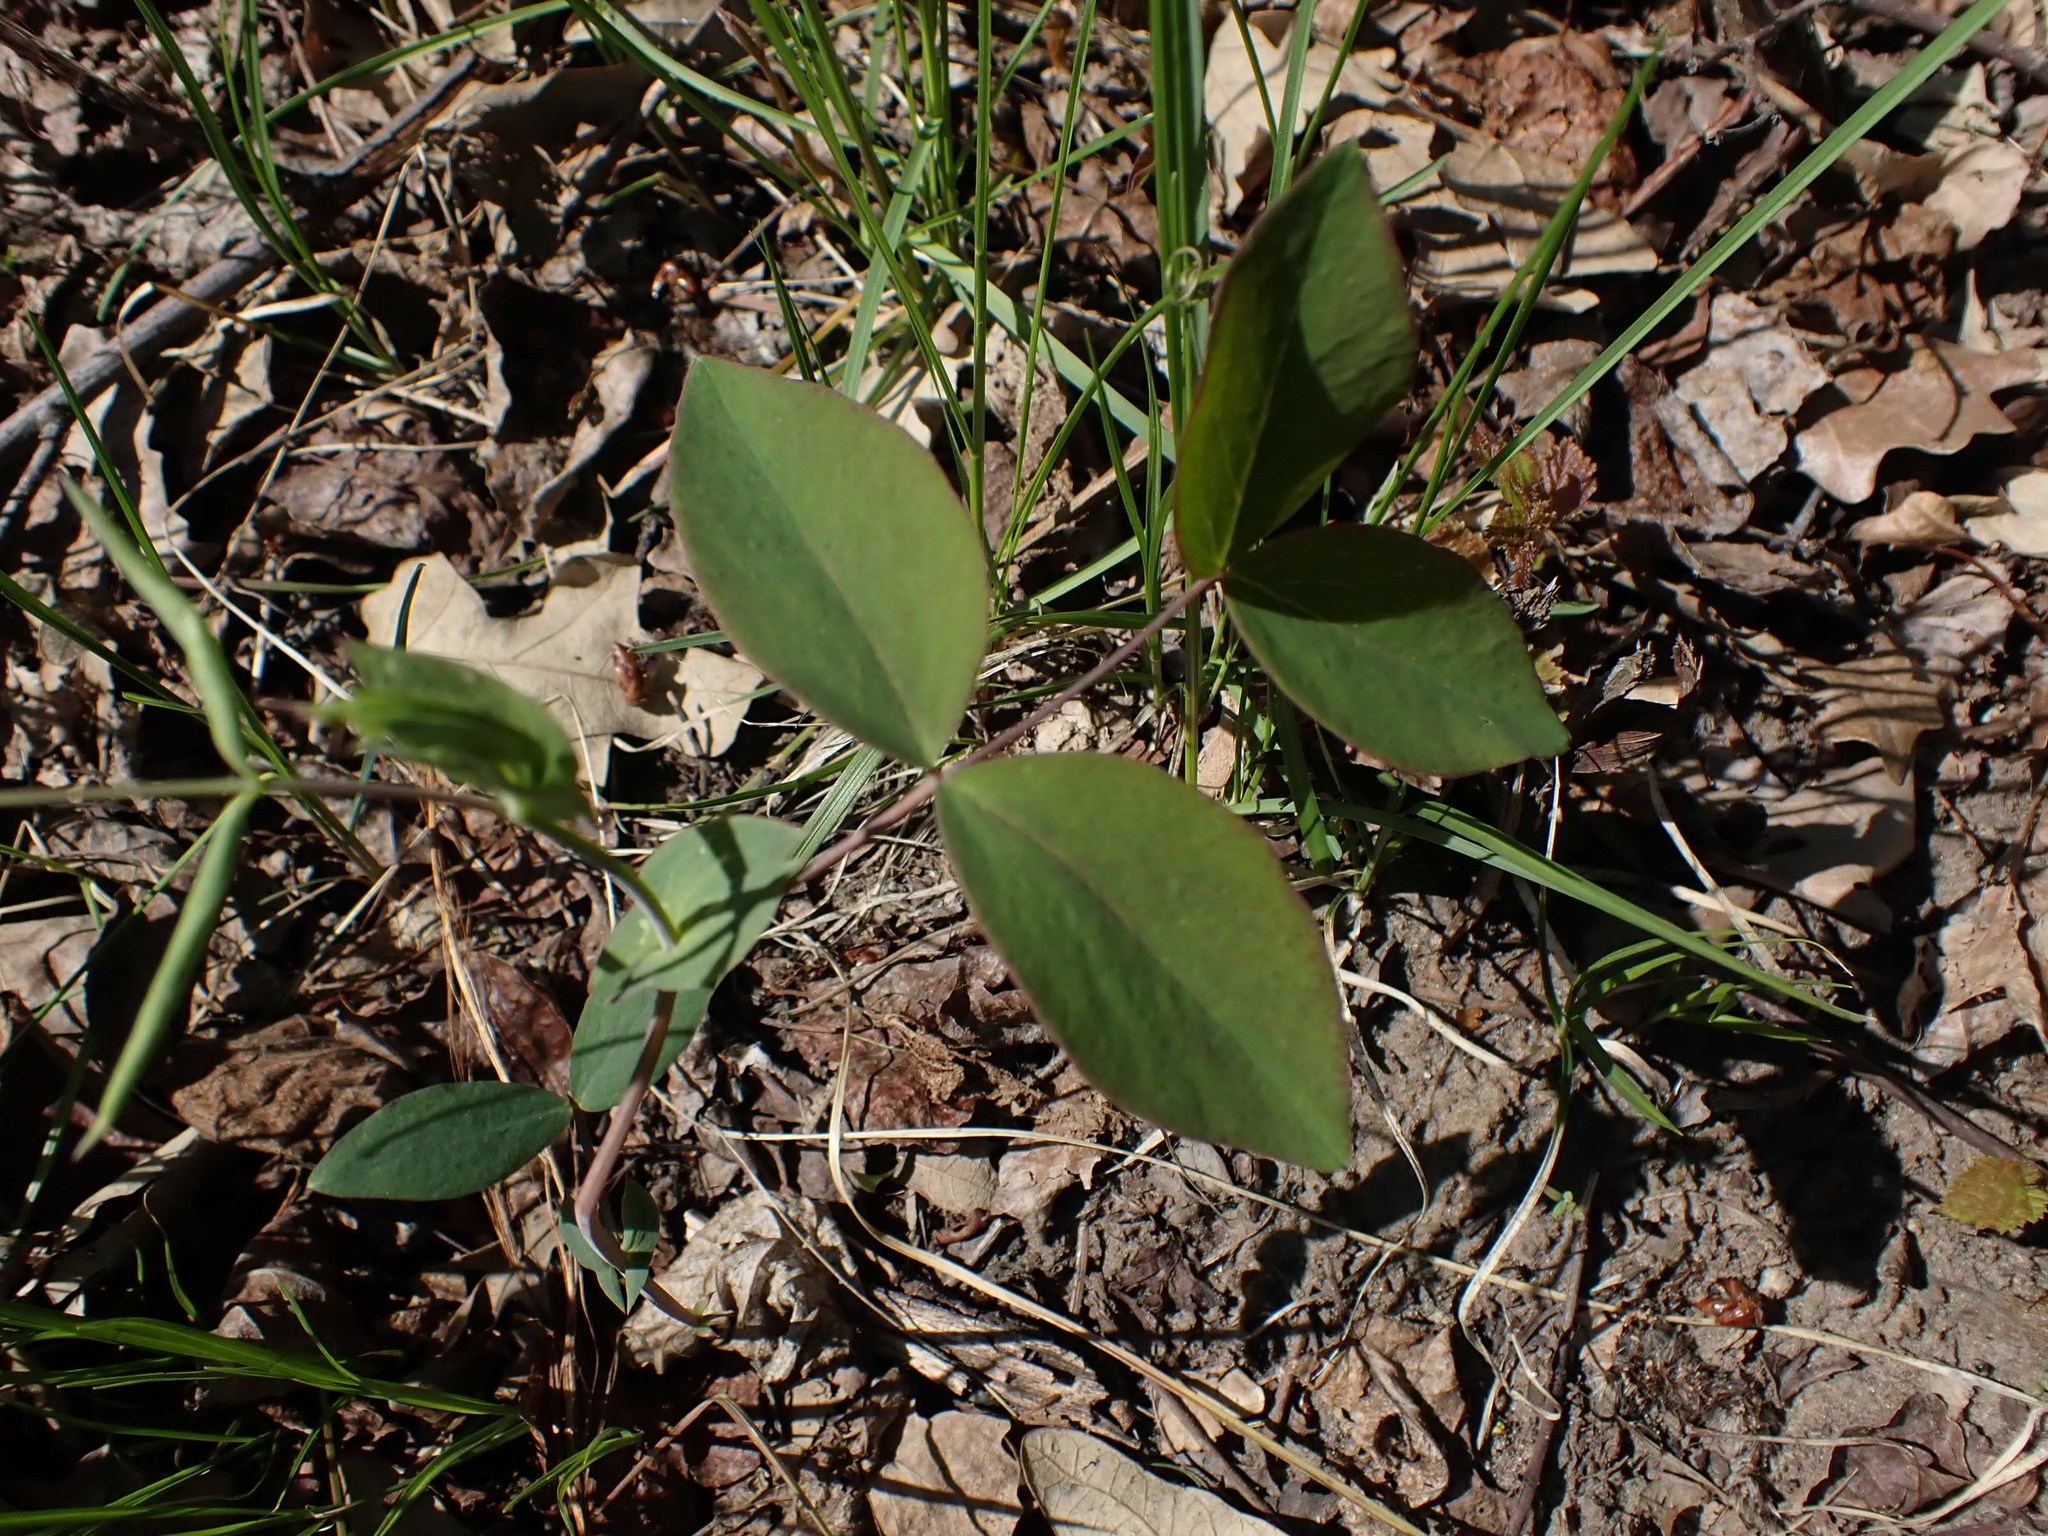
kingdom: Plantae
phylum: Tracheophyta
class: Magnoliopsida
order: Fabales
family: Fabaceae
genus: Lathyrus
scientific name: Lathyrus ochroleucus
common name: Pale vetchling
